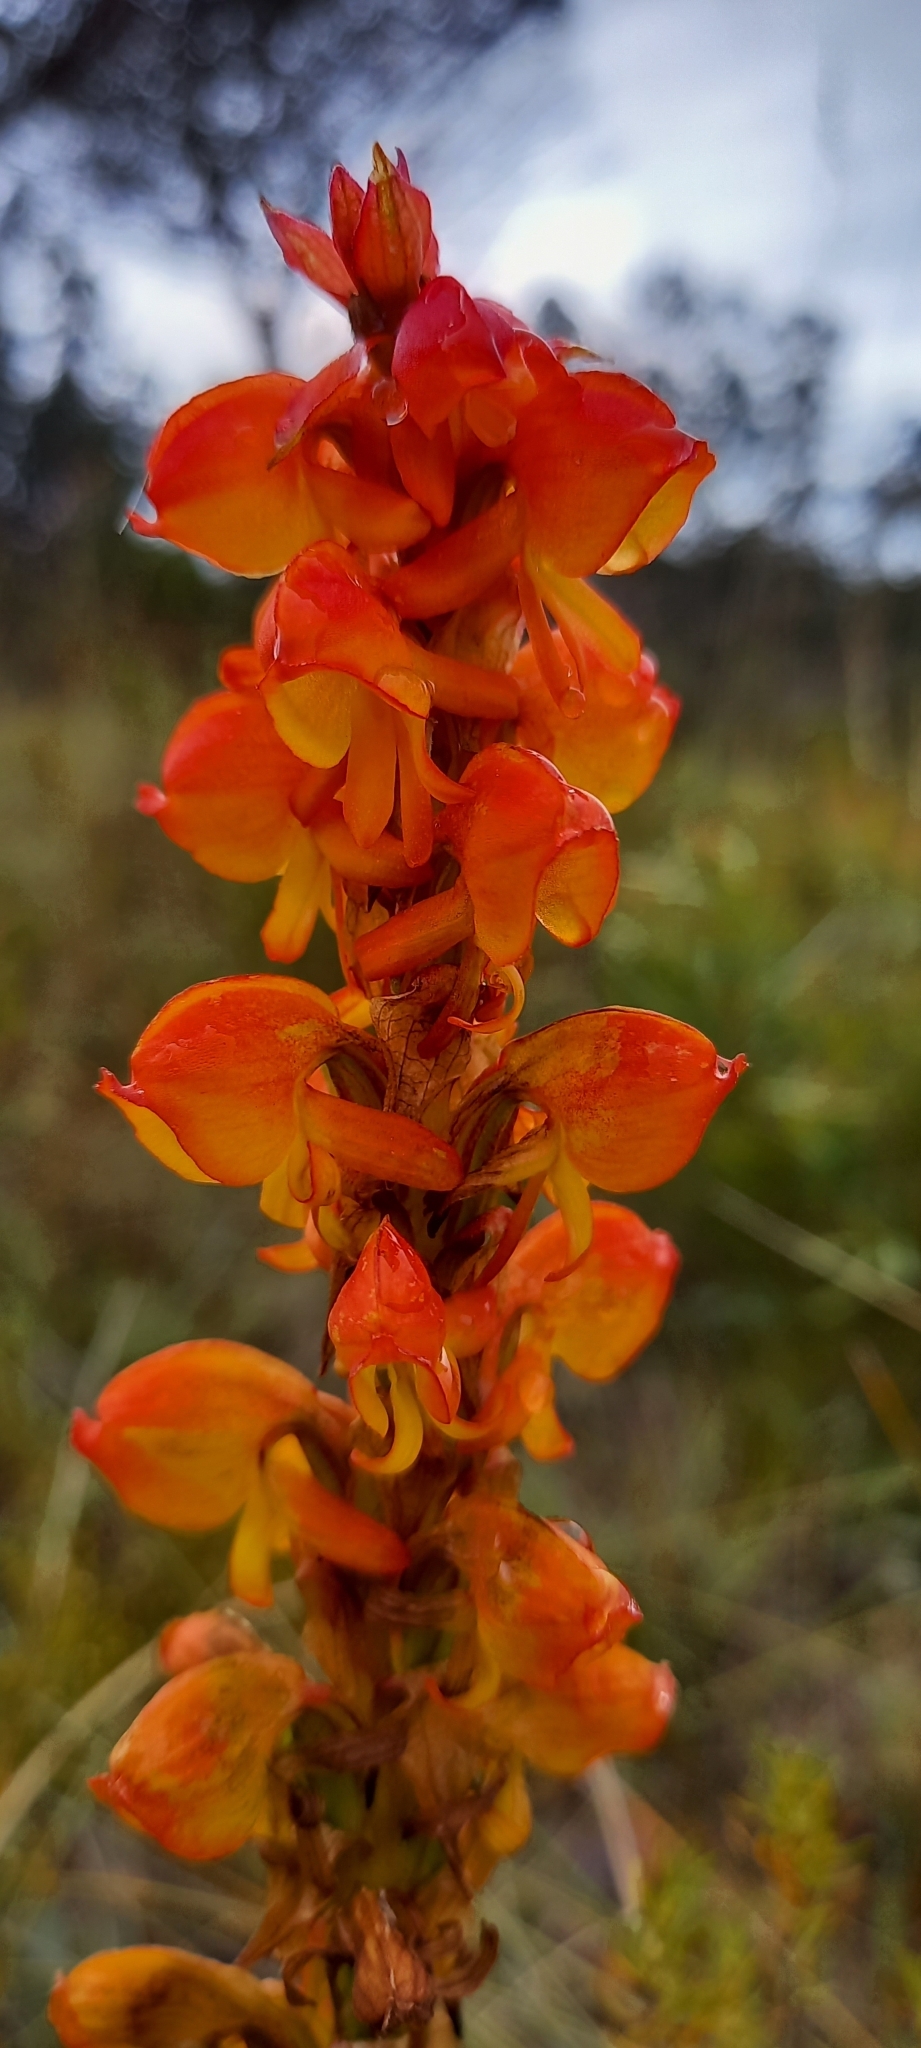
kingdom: Plantae
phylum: Tracheophyta
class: Liliopsida
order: Asparagales
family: Orchidaceae
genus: Satyrium
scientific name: Satyrium coriifolium
